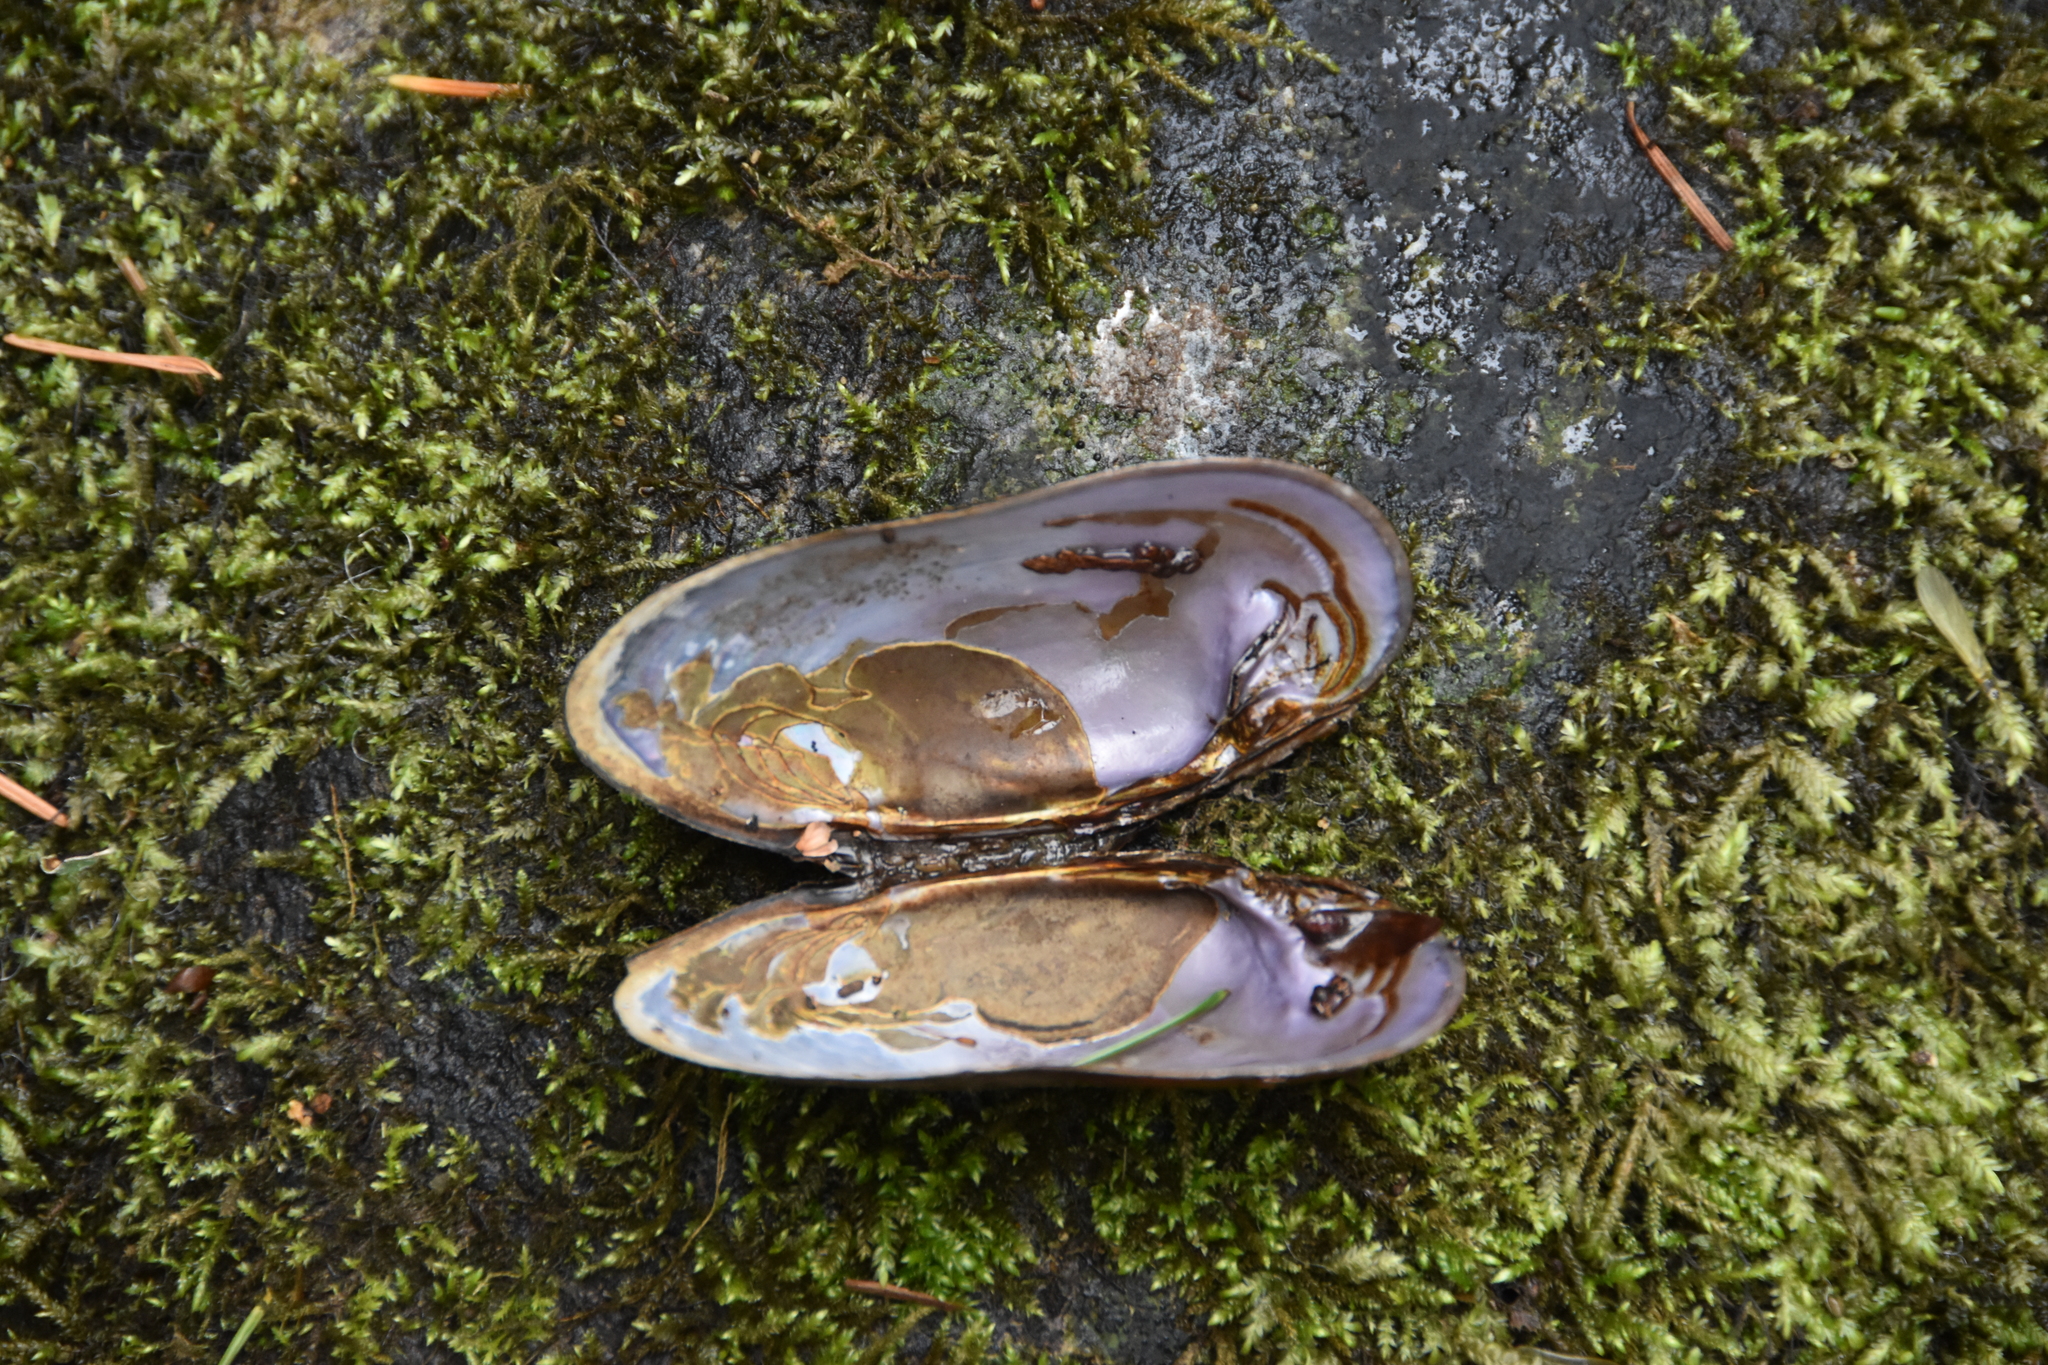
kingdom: Animalia
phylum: Mollusca
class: Bivalvia
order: Unionida
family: Margaritiferidae
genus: Margaritifera
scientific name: Margaritifera falcata
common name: Western pearlshell
